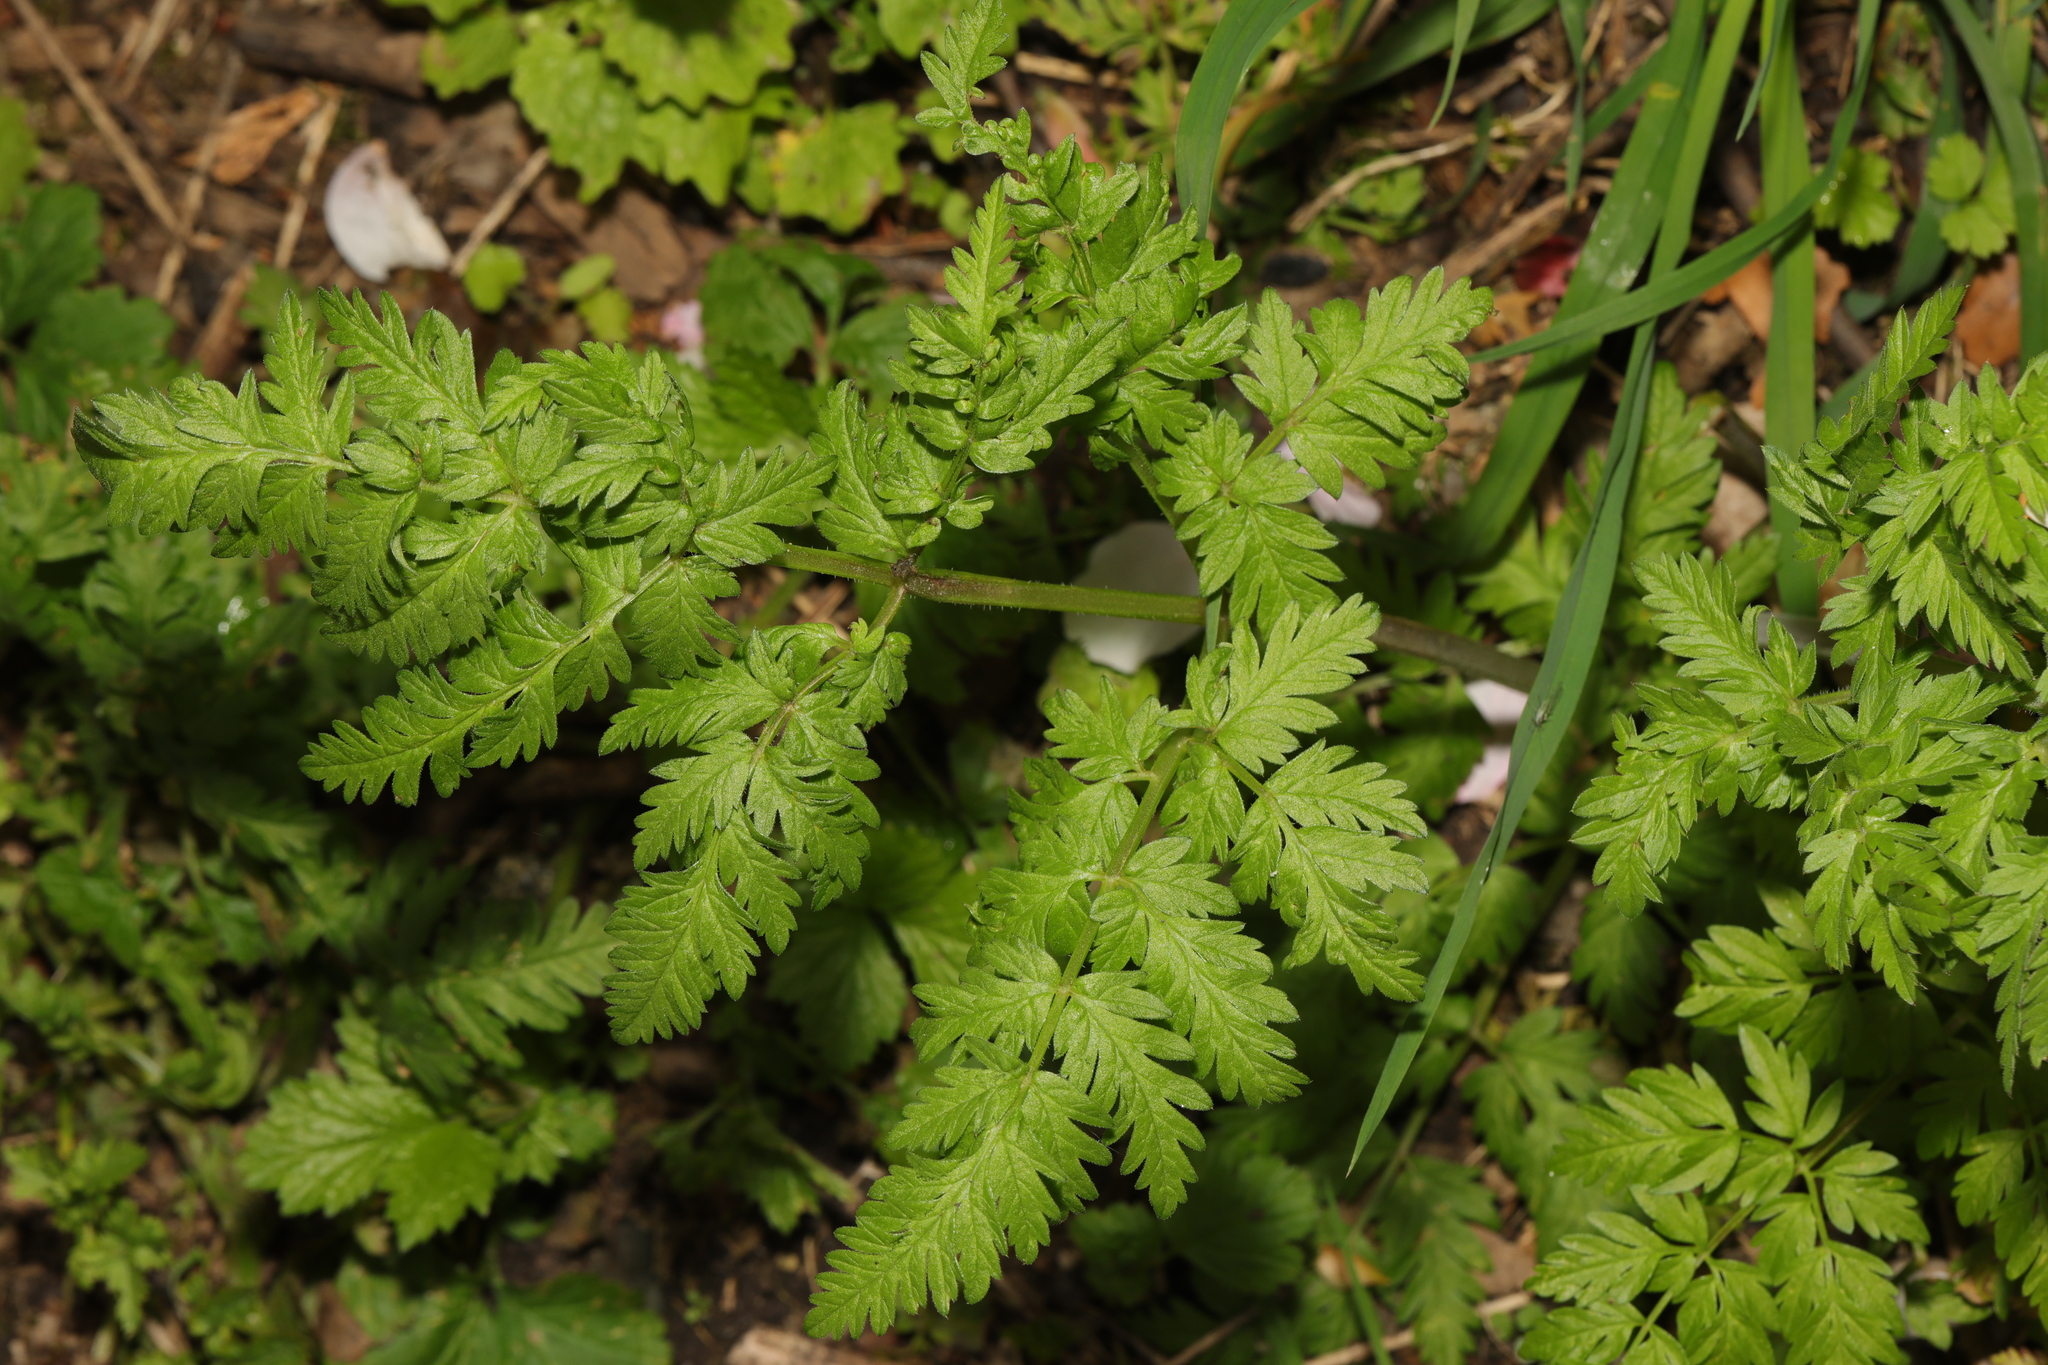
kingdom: Plantae
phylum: Tracheophyta
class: Magnoliopsida
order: Apiales
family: Apiaceae
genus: Anthriscus
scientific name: Anthriscus sylvestris
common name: Cow parsley
